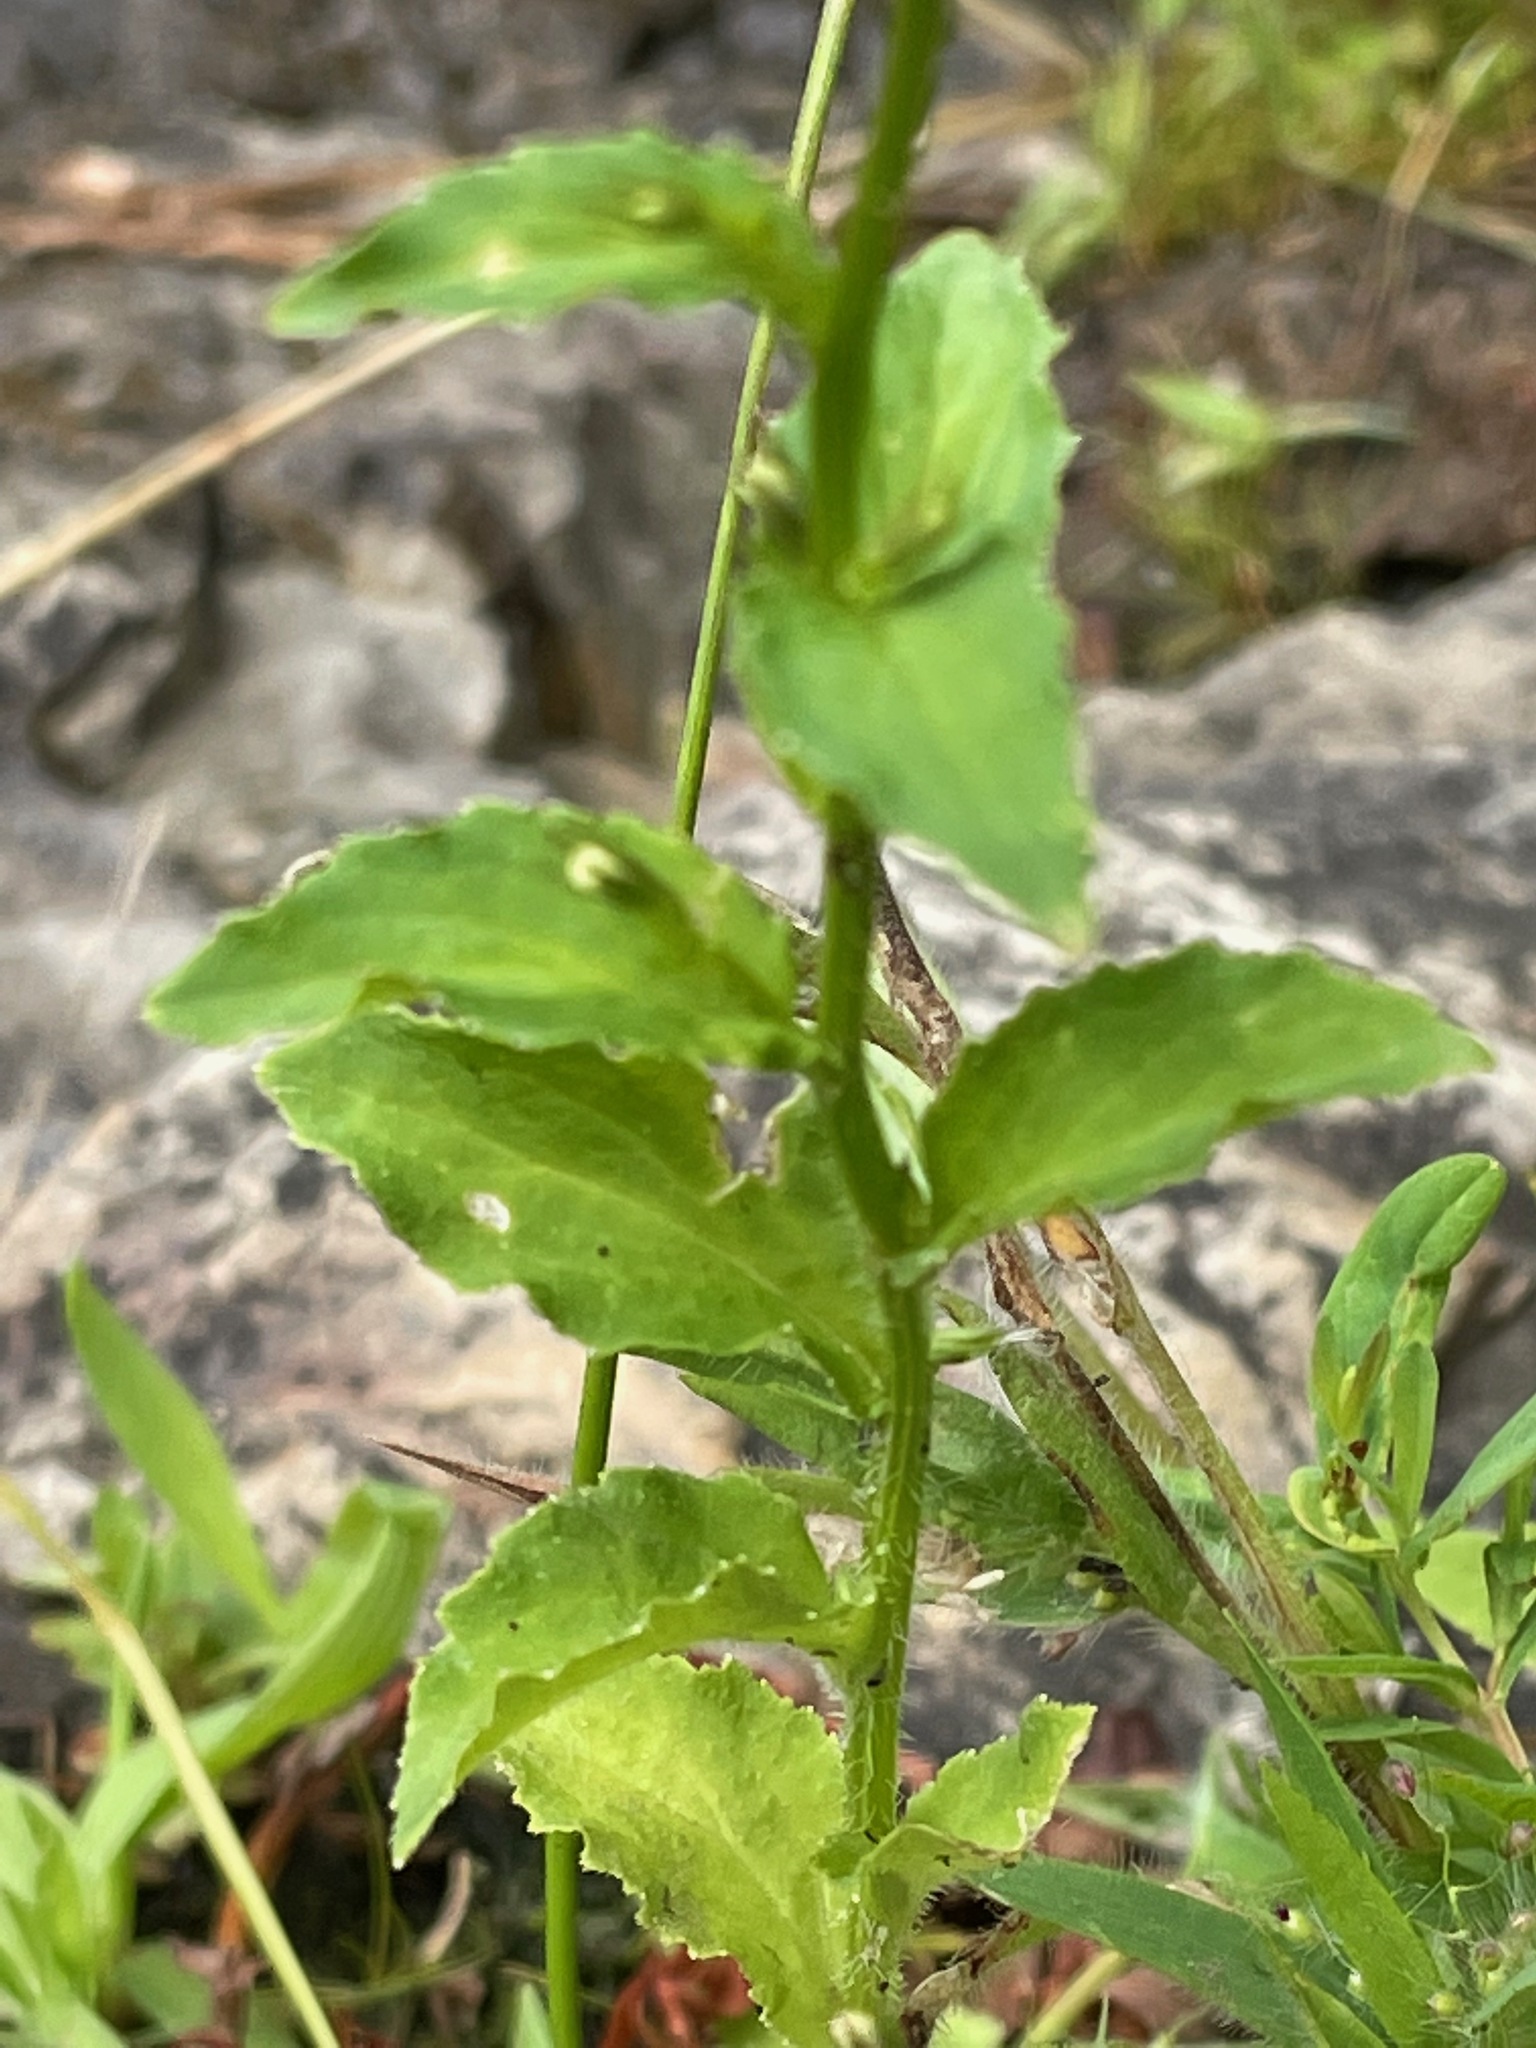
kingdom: Plantae
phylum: Tracheophyta
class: Magnoliopsida
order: Asterales
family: Campanulaceae
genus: Lobelia
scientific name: Lobelia inflata
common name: Indian tobacco
